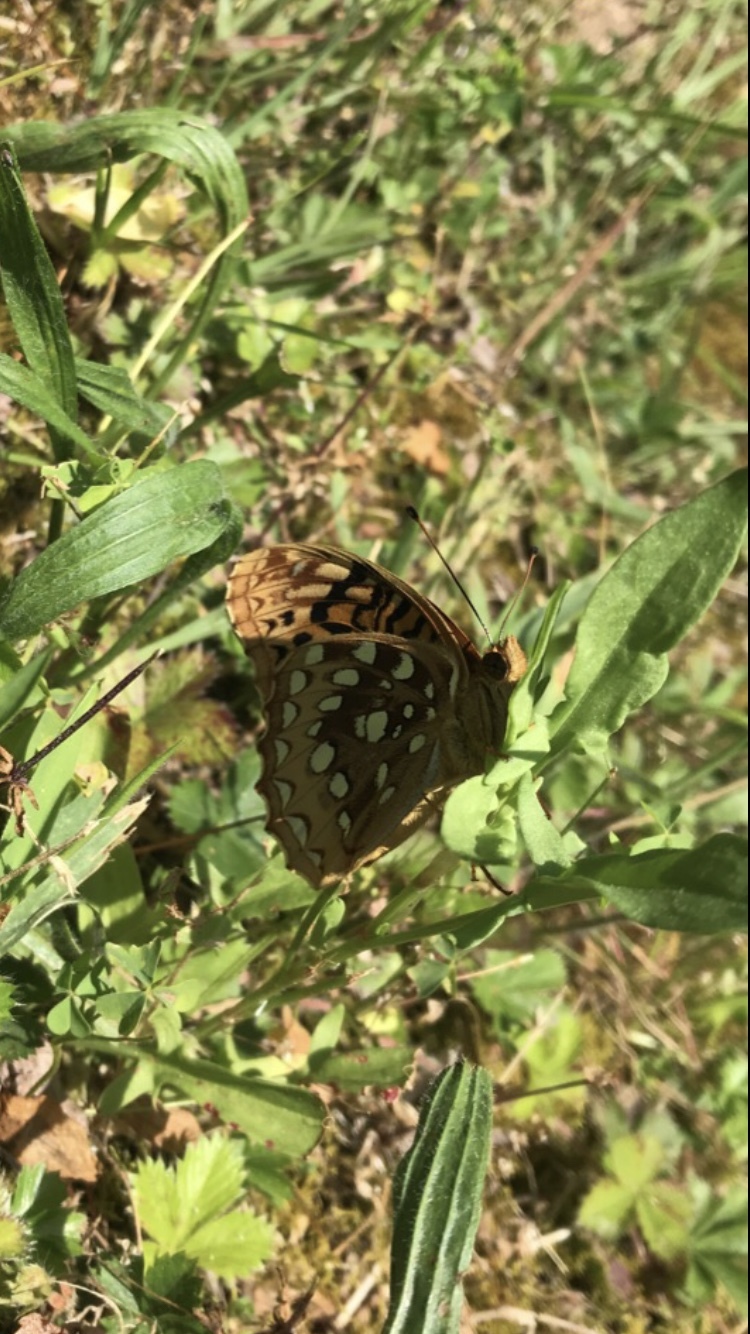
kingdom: Animalia
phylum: Arthropoda
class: Insecta
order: Lepidoptera
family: Nymphalidae
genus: Speyeria
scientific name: Speyeria cybele
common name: Great spangled fritillary
